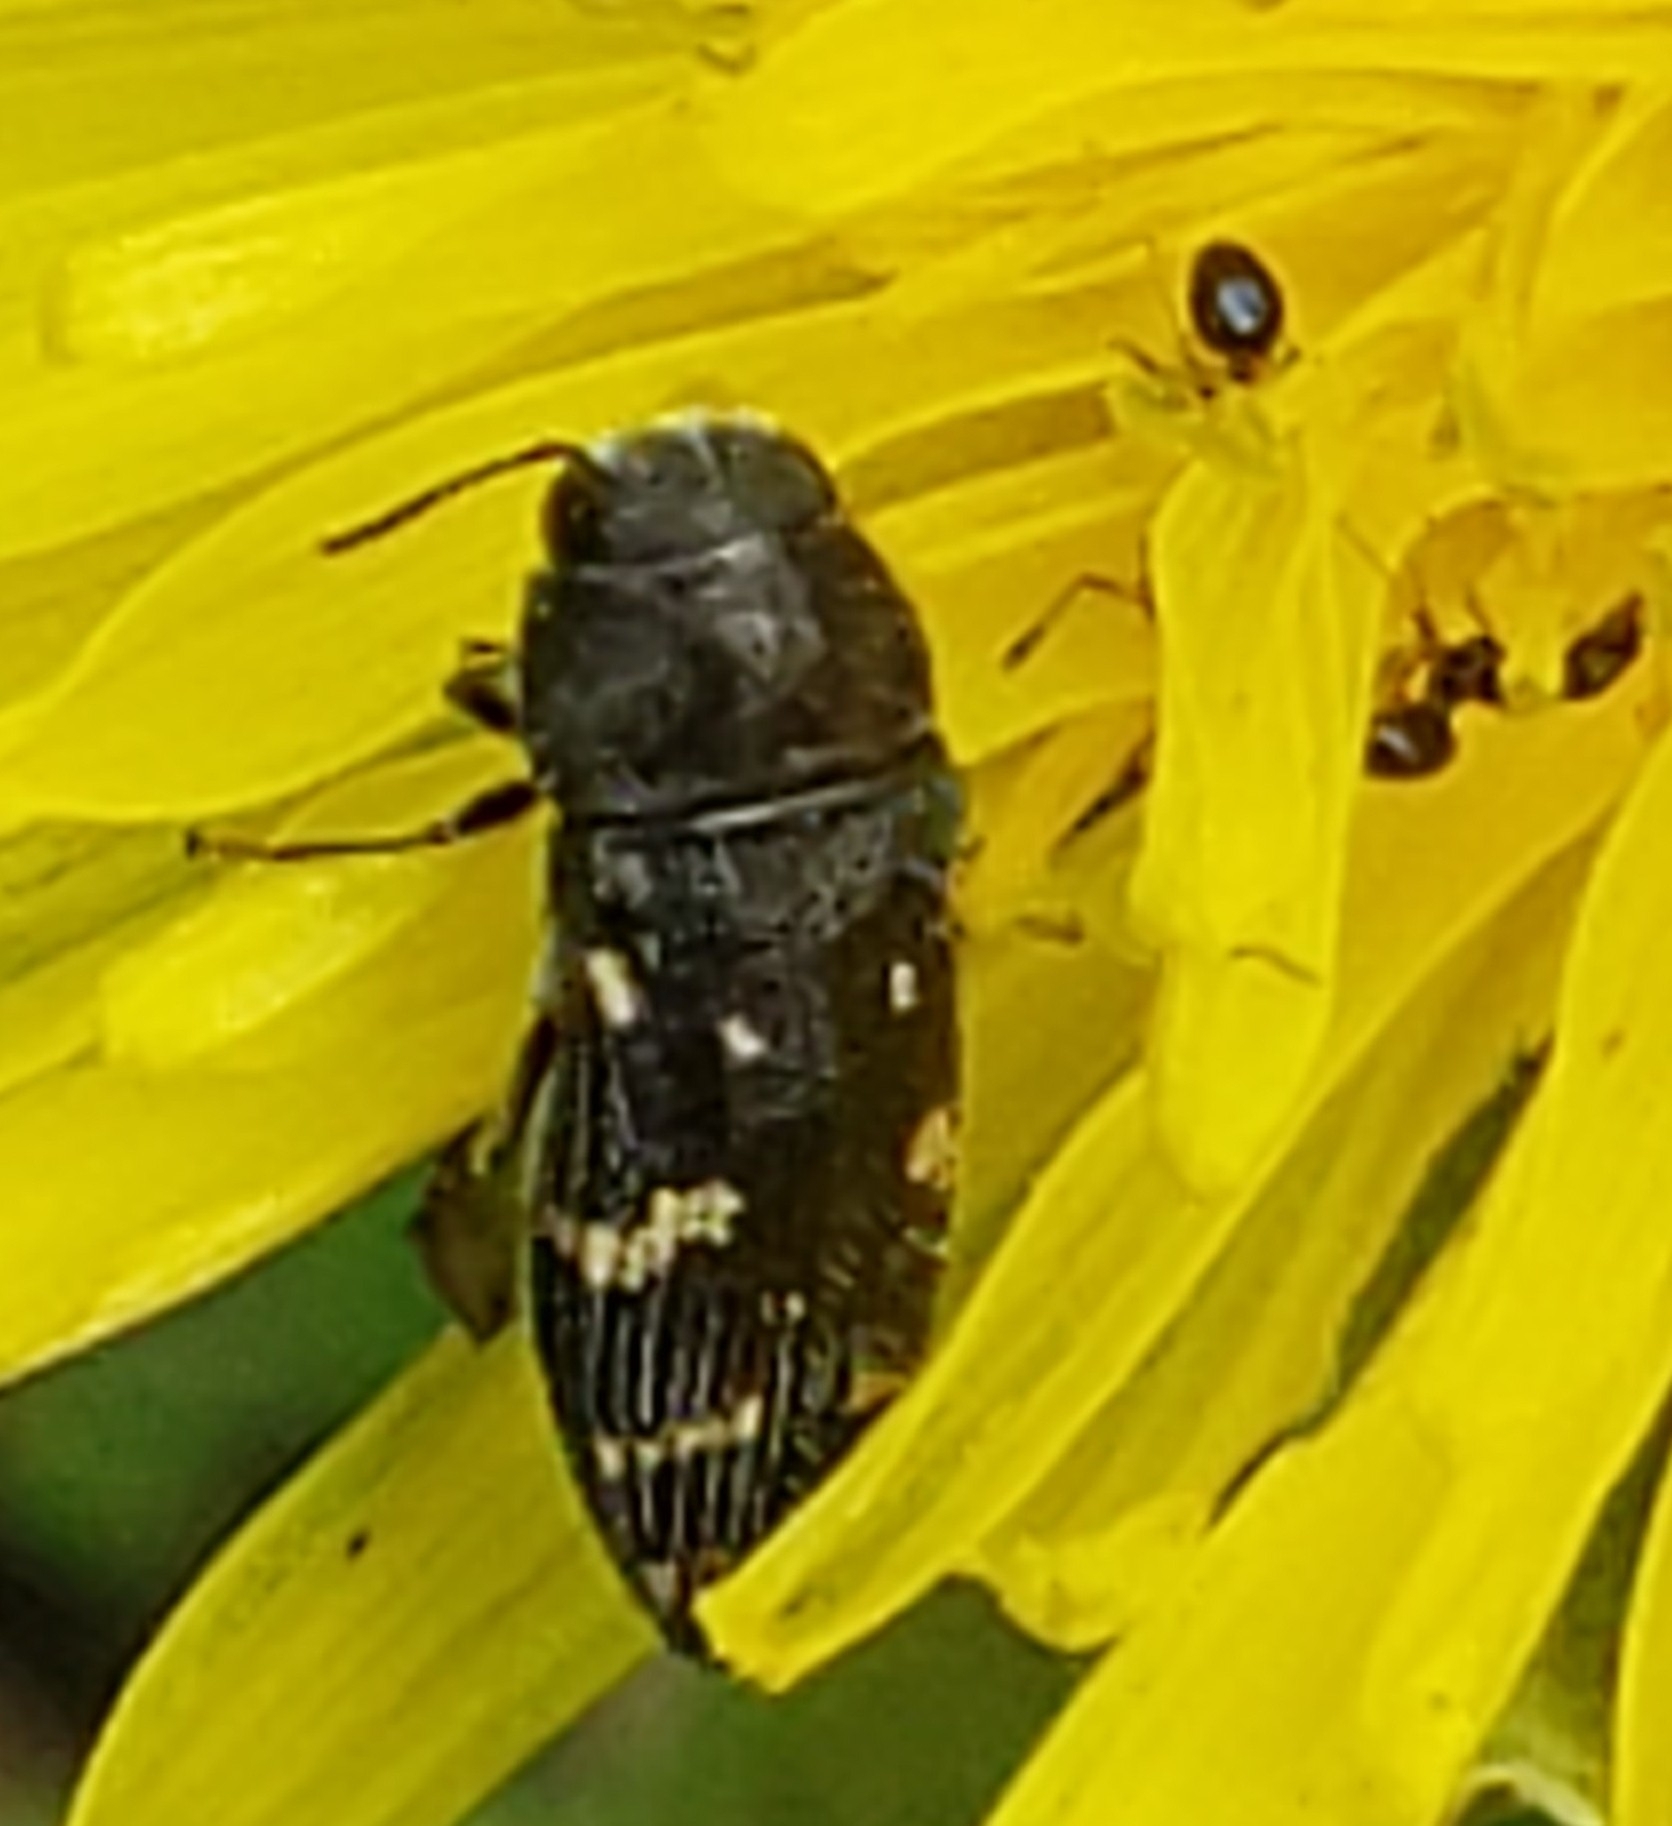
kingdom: Animalia
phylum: Arthropoda
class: Insecta
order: Coleoptera
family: Buprestidae
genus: Acmaeodera
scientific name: Acmaeodera tubulus
